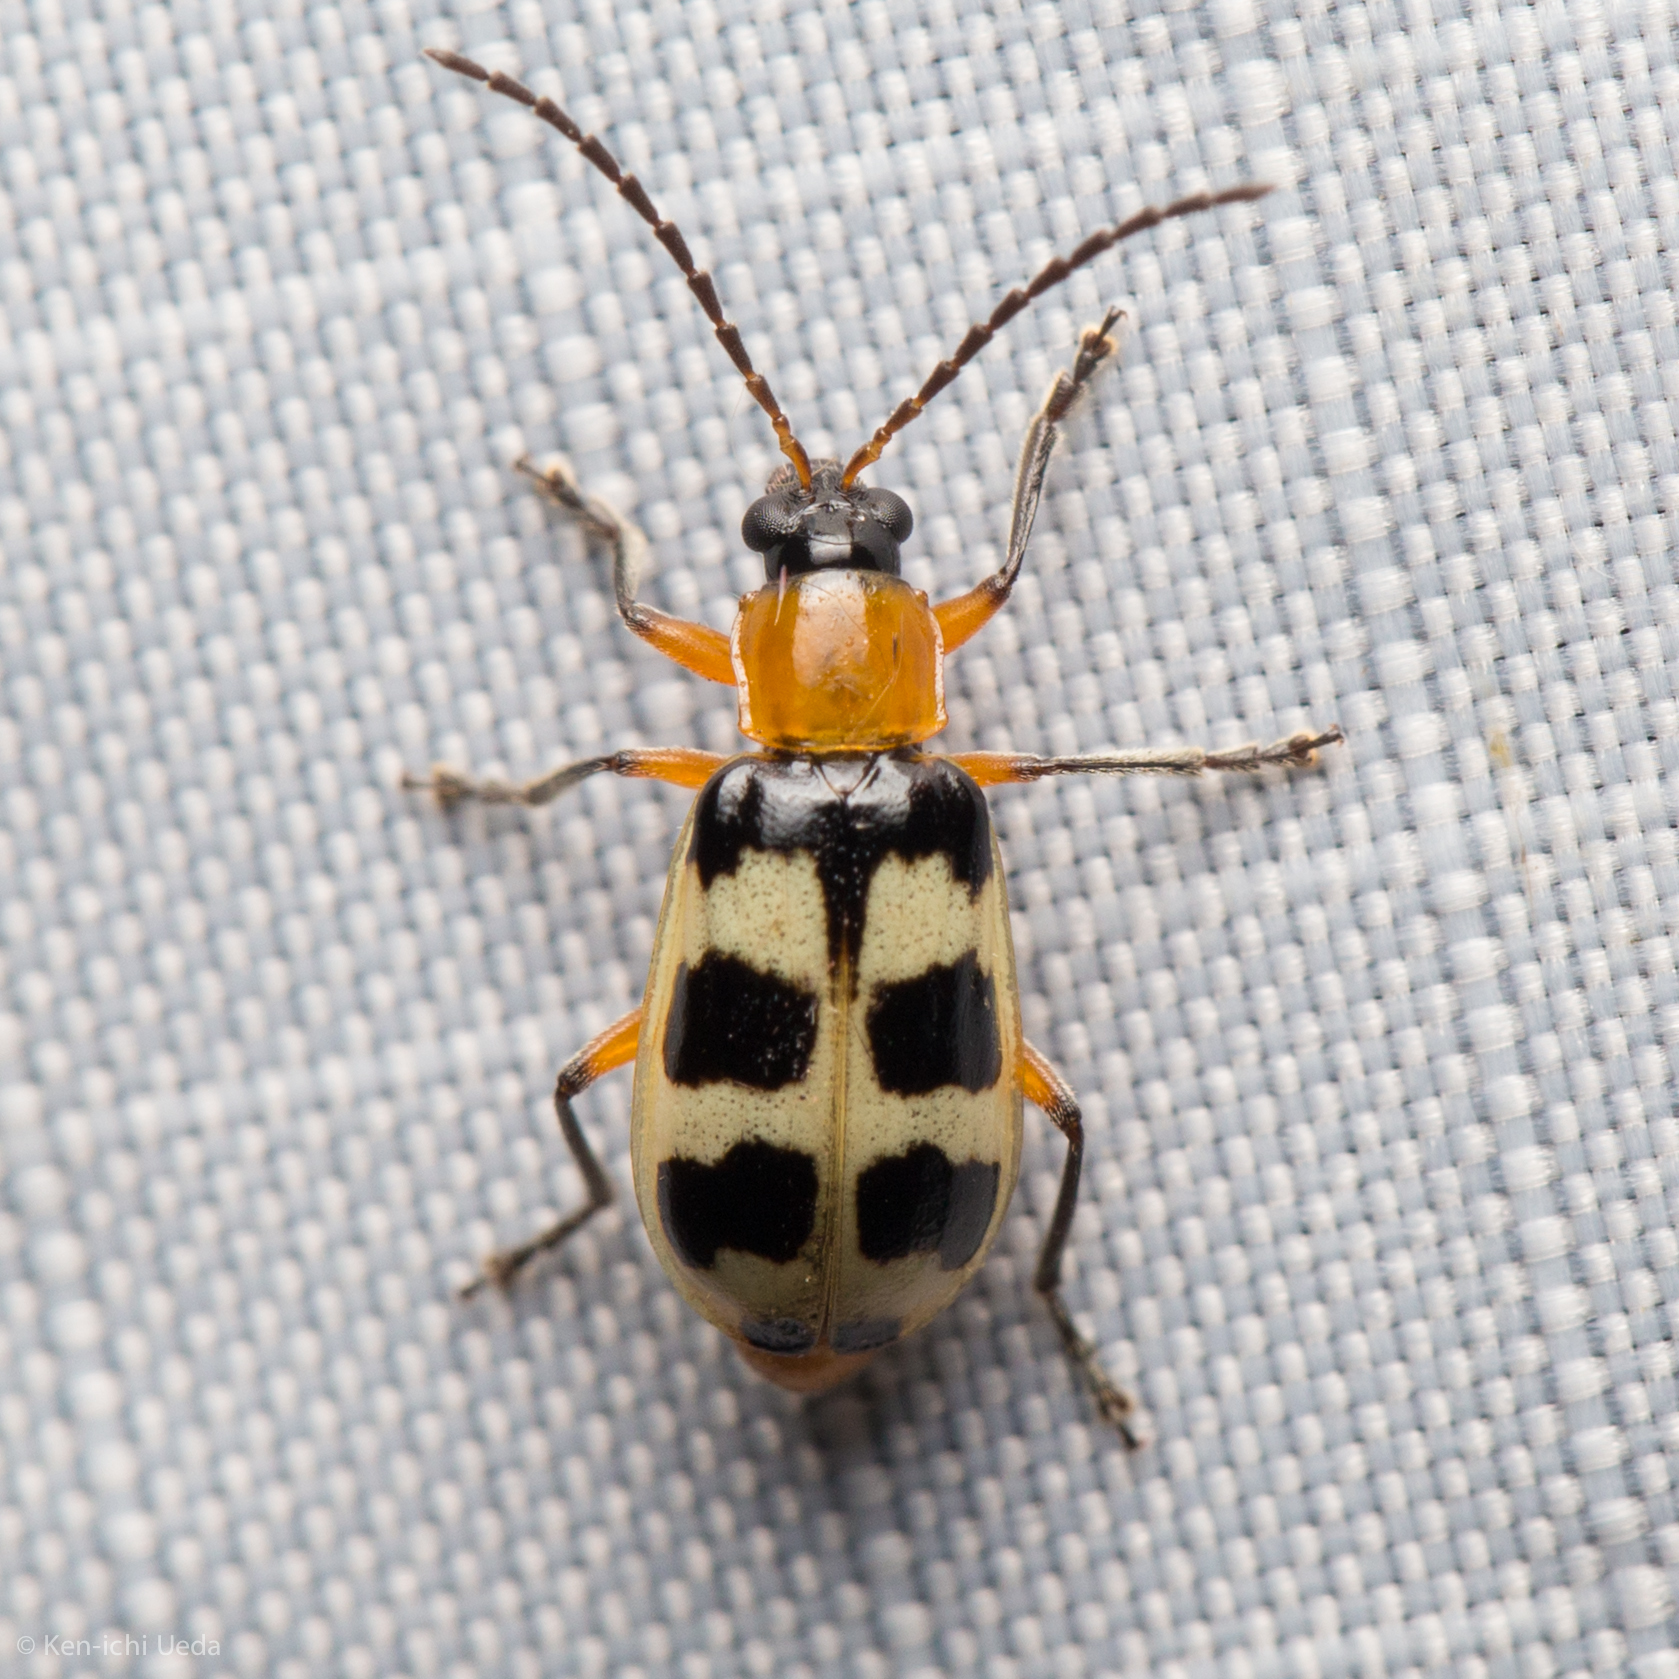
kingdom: Animalia
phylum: Arthropoda
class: Insecta
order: Coleoptera
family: Chrysomelidae
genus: Paranapiacaba
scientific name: Paranapiacaba tricincta
